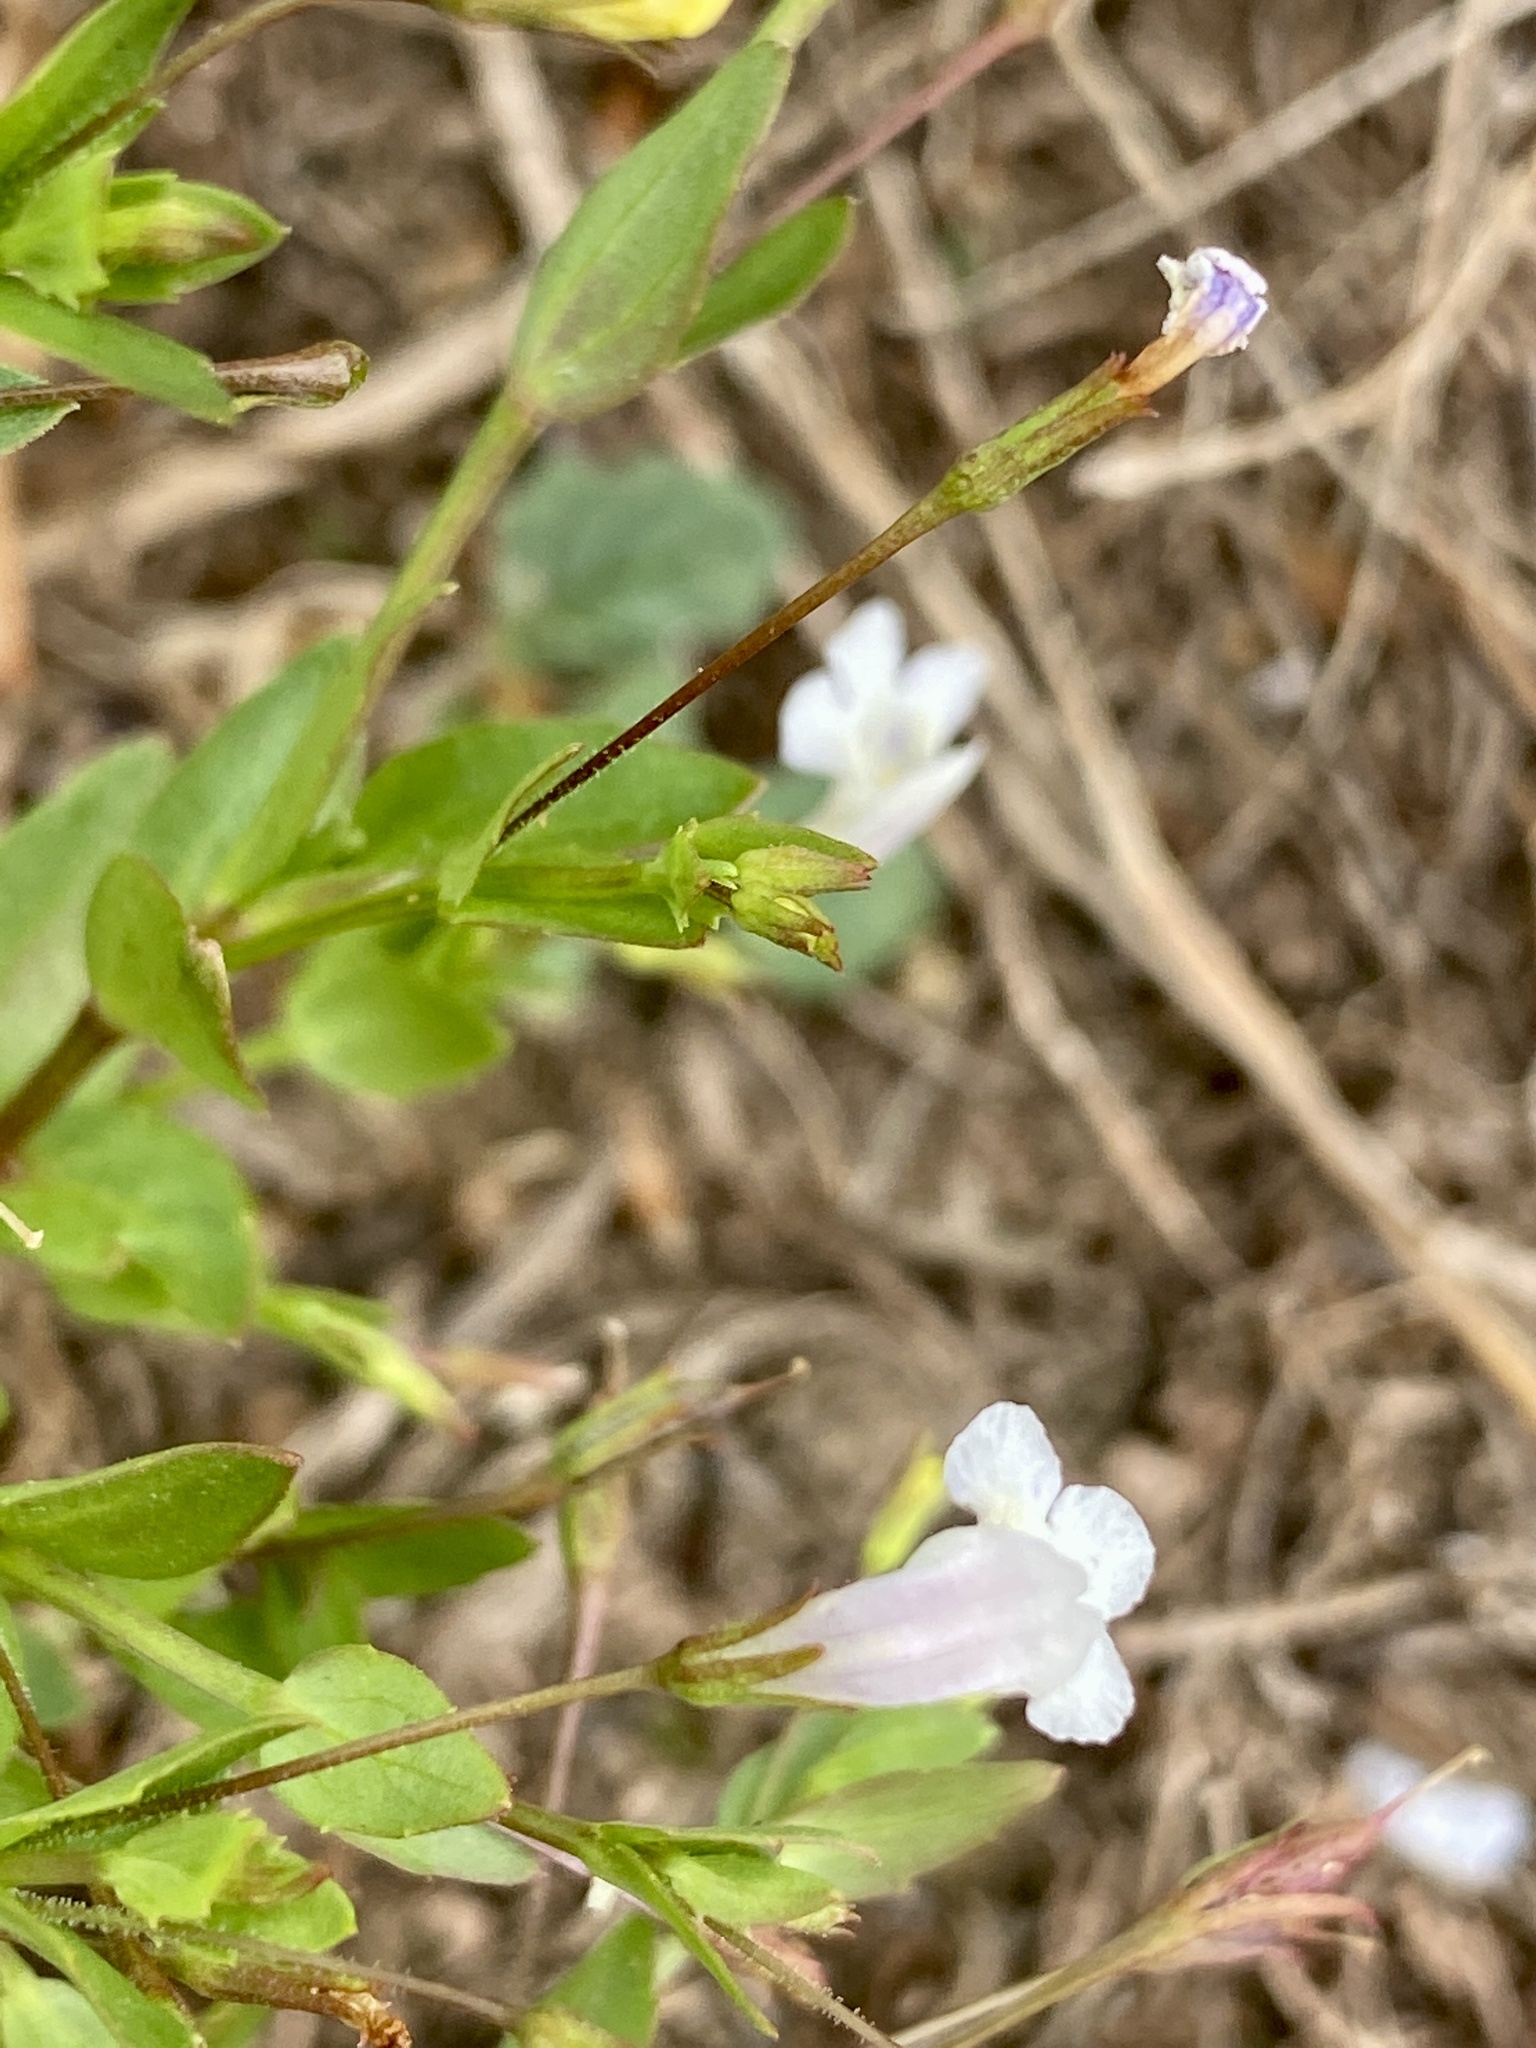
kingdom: Plantae
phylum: Tracheophyta
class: Magnoliopsida
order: Lamiales
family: Linderniaceae
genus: Lindernia
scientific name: Lindernia dubia
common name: Annual false pimpernel
